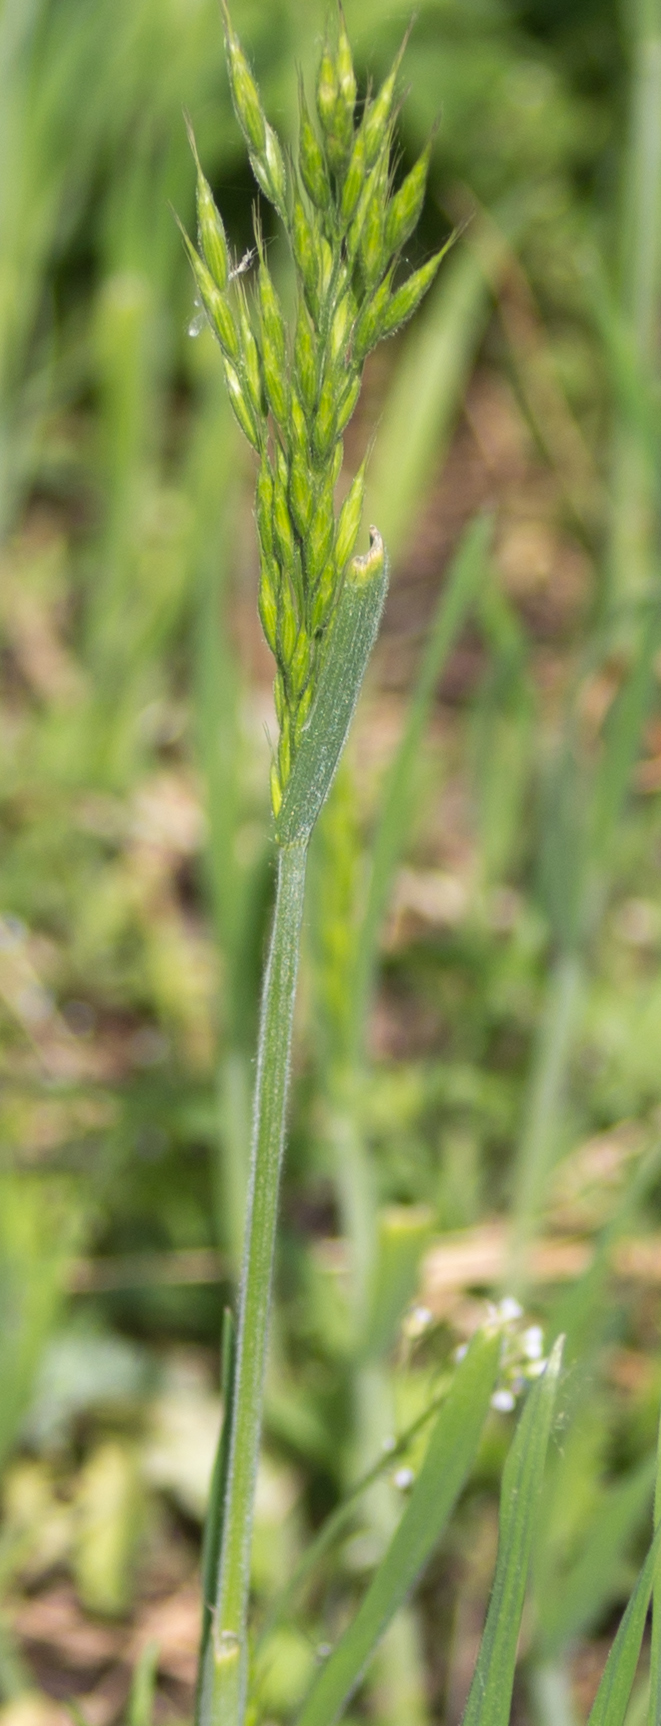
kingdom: Plantae
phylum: Tracheophyta
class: Liliopsida
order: Poales
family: Poaceae
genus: Bromus
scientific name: Bromus hordeaceus
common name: Soft brome
